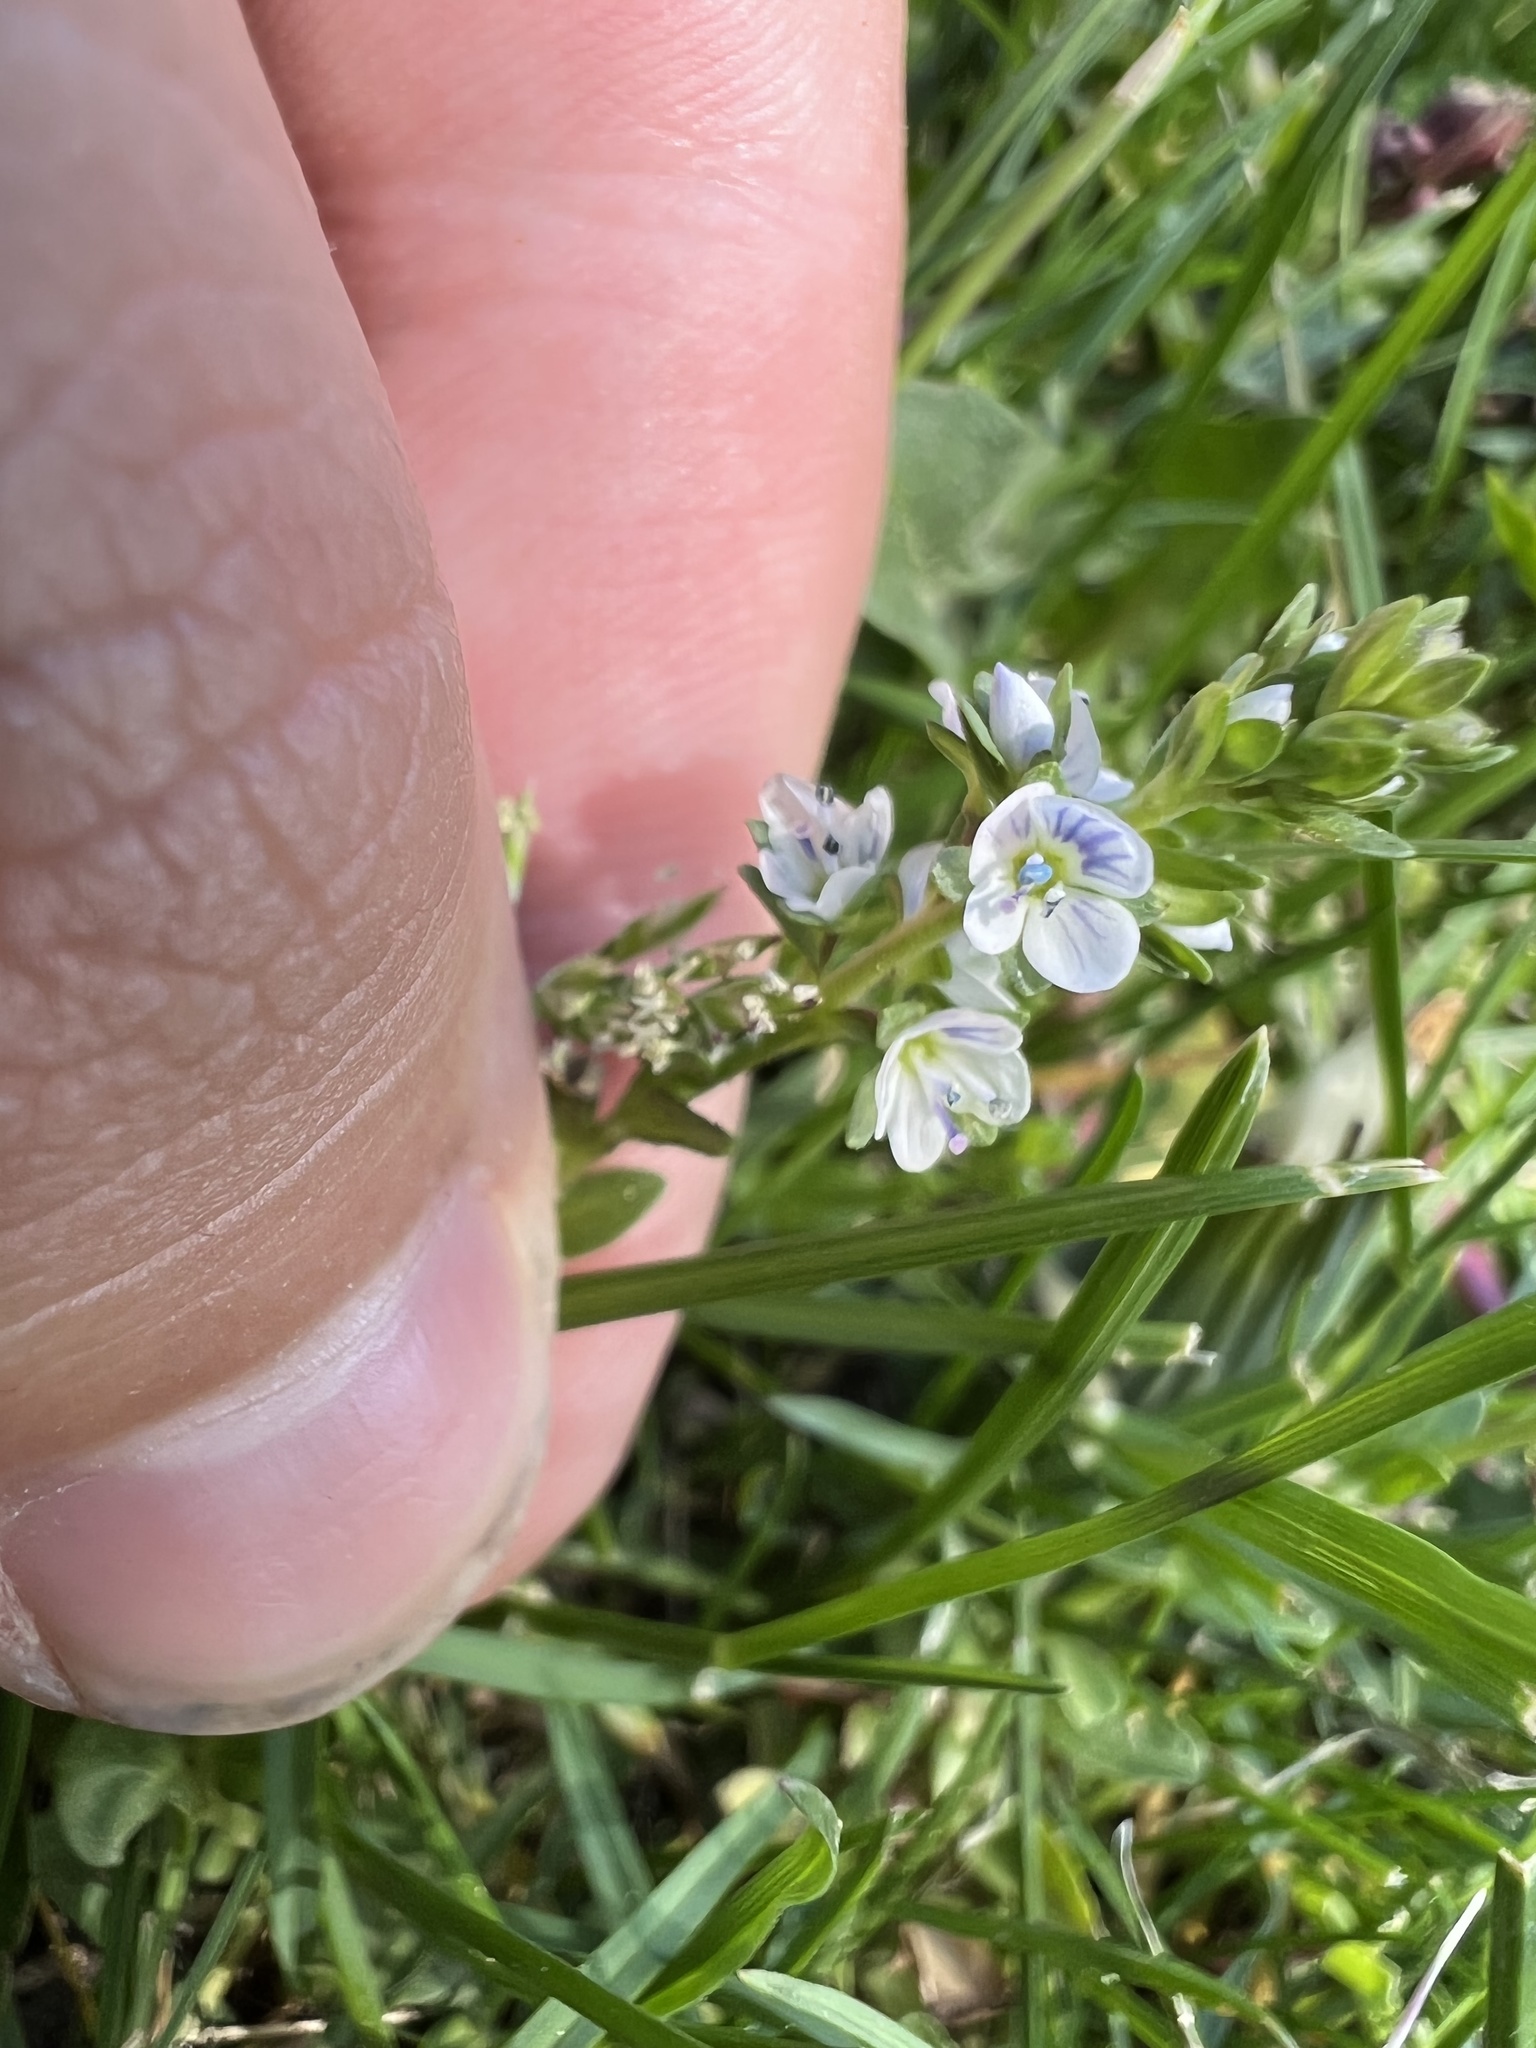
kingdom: Plantae
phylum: Tracheophyta
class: Magnoliopsida
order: Lamiales
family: Plantaginaceae
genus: Veronica
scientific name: Veronica serpyllifolia
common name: Thyme-leaved speedwell
